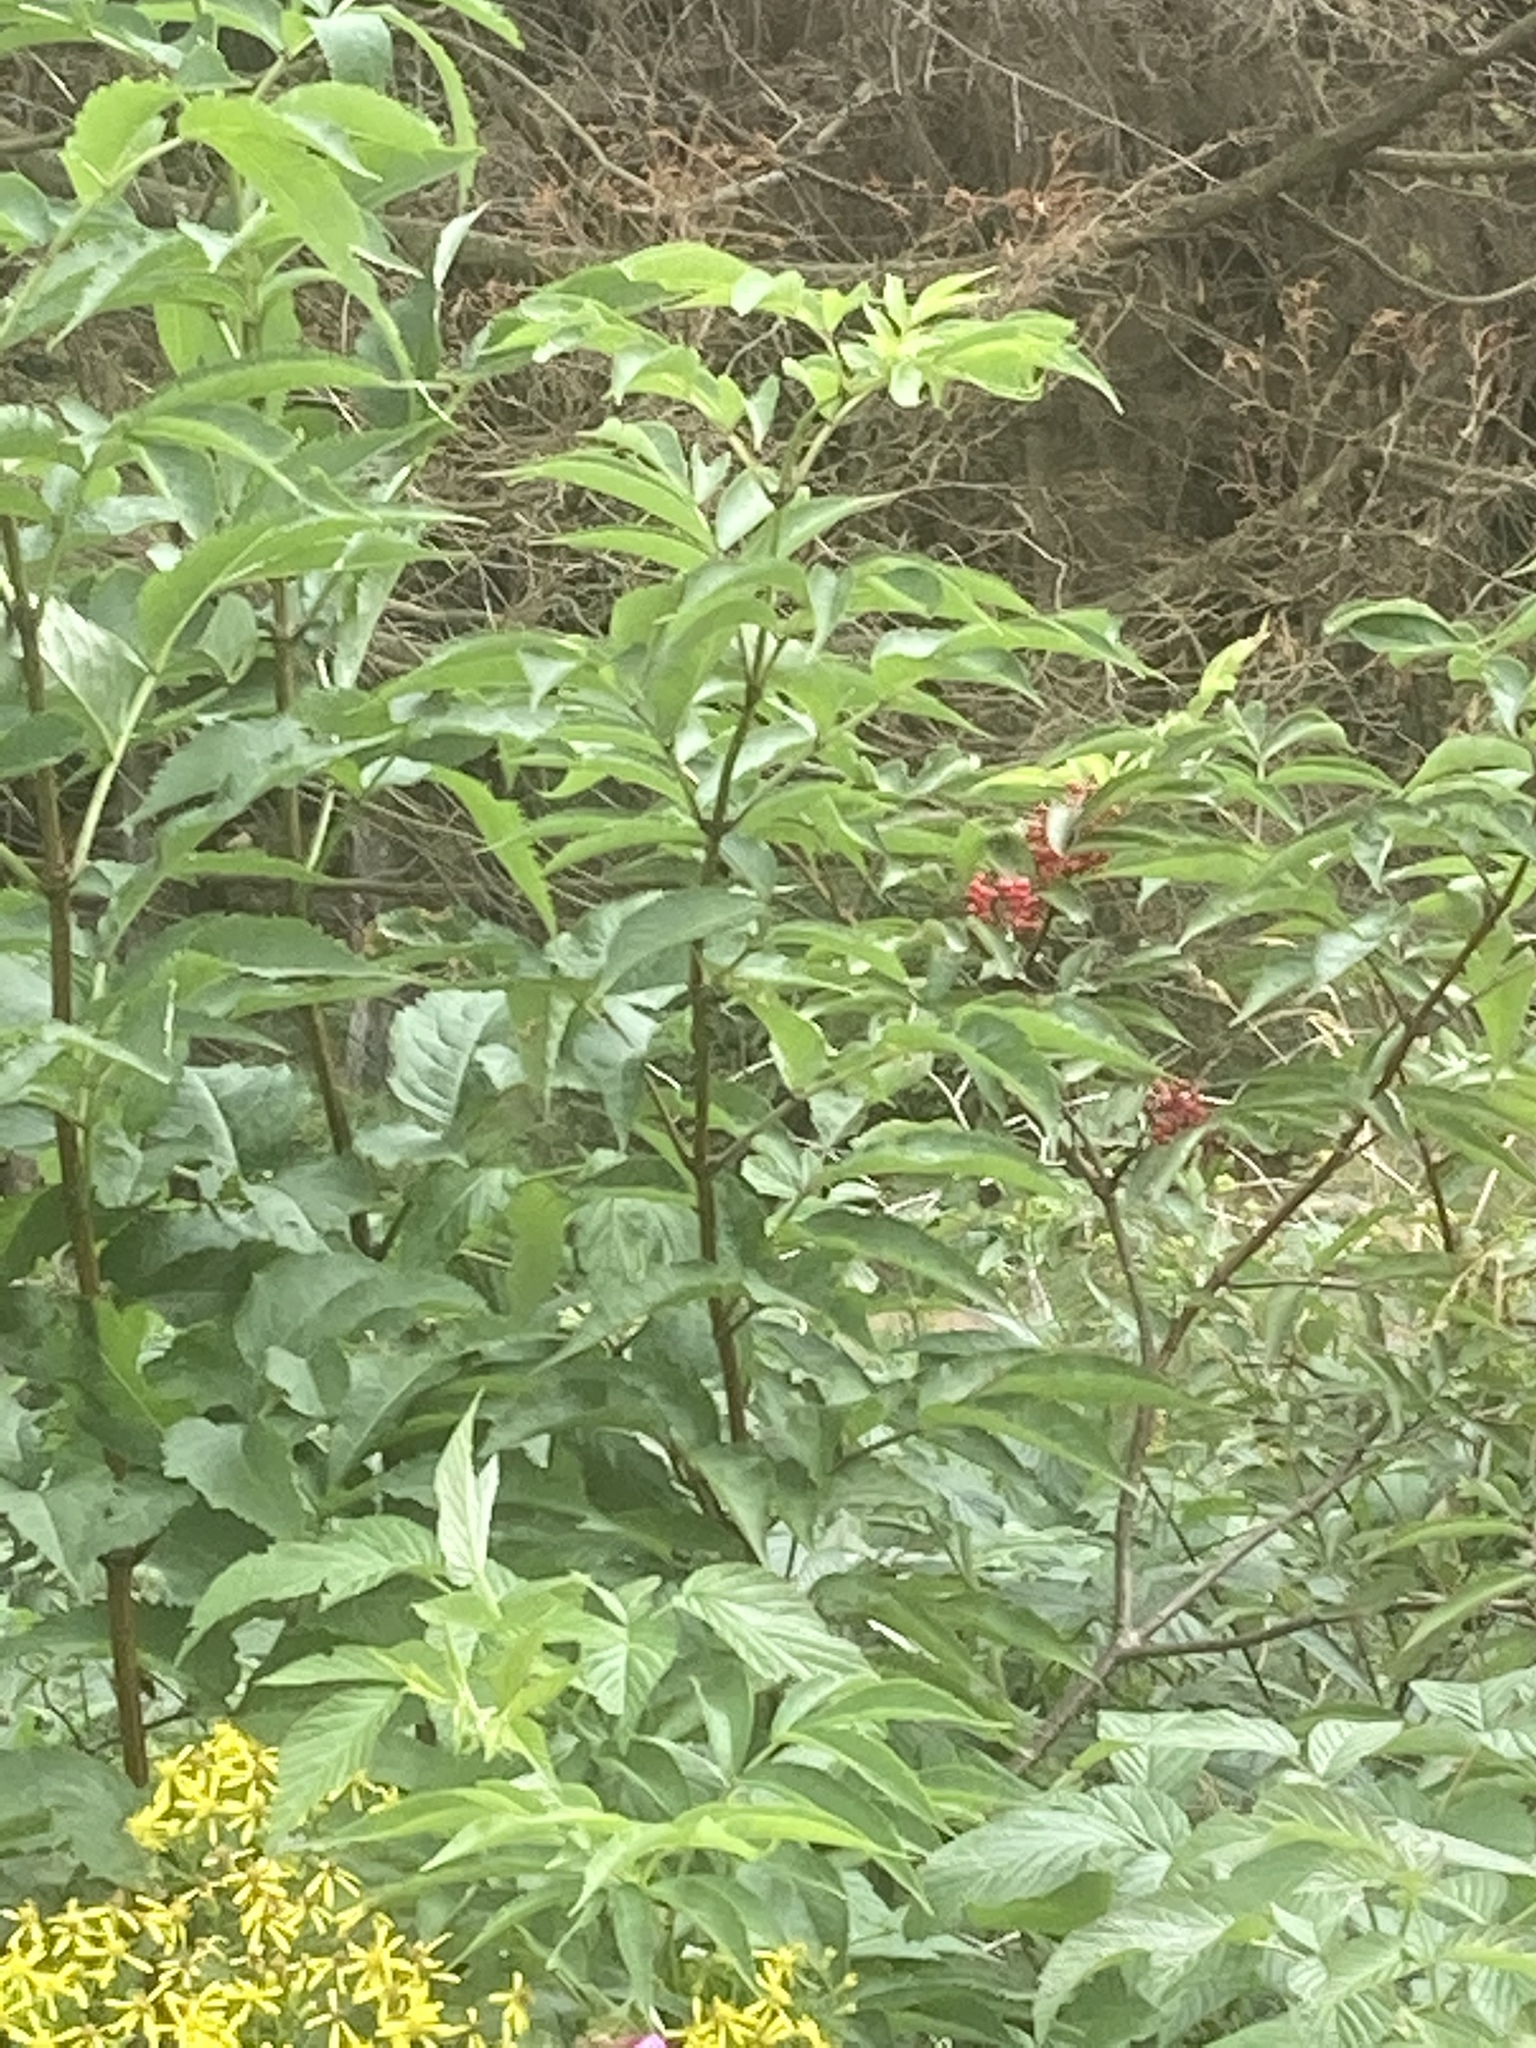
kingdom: Plantae
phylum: Tracheophyta
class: Magnoliopsida
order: Dipsacales
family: Viburnaceae
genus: Sambucus
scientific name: Sambucus racemosa
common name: Red-berried elder
